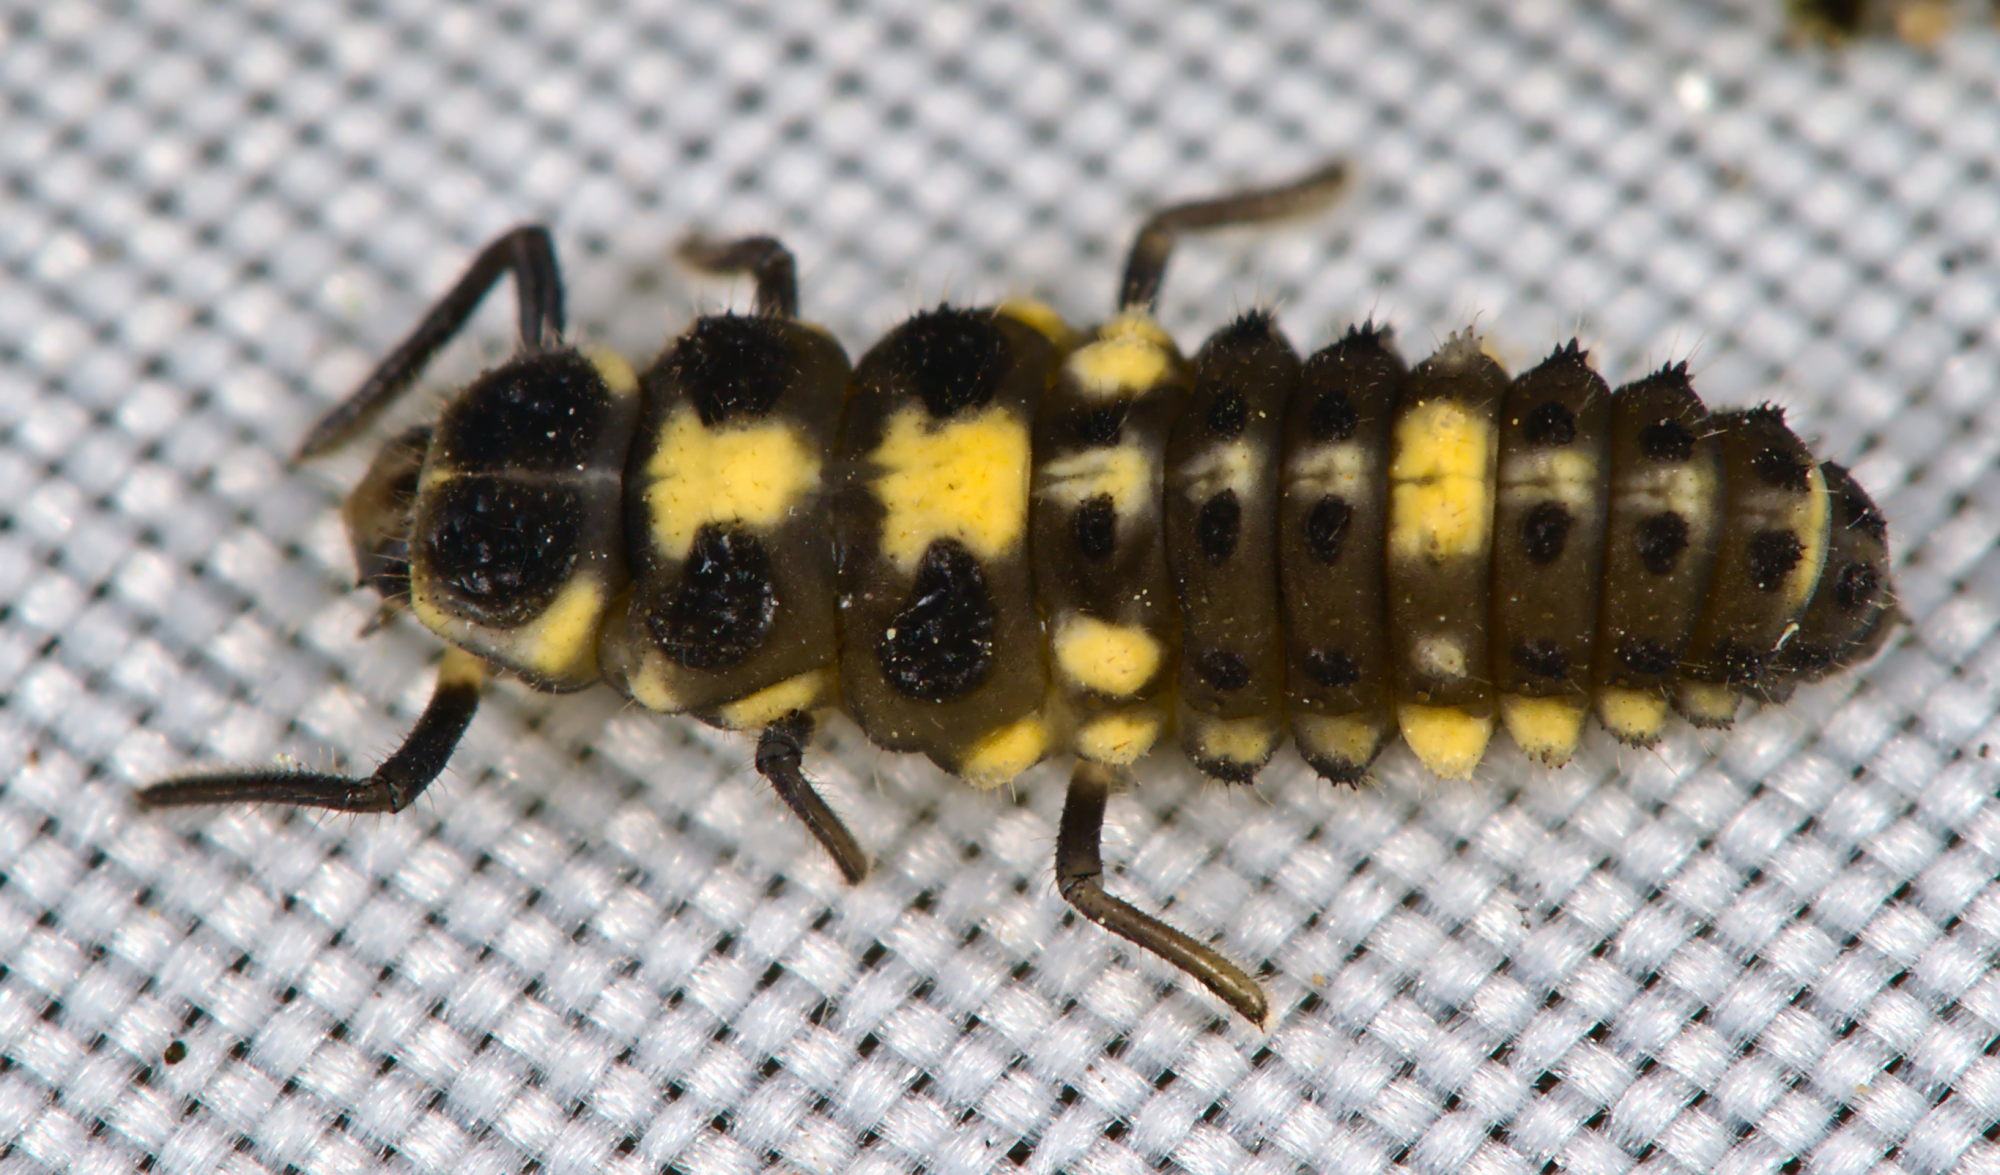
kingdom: Animalia
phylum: Arthropoda
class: Insecta
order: Coleoptera
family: Coccinellidae
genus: Propylaea
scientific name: Propylaea quatuordecimpunctata
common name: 14-spotted ladybird beetle
